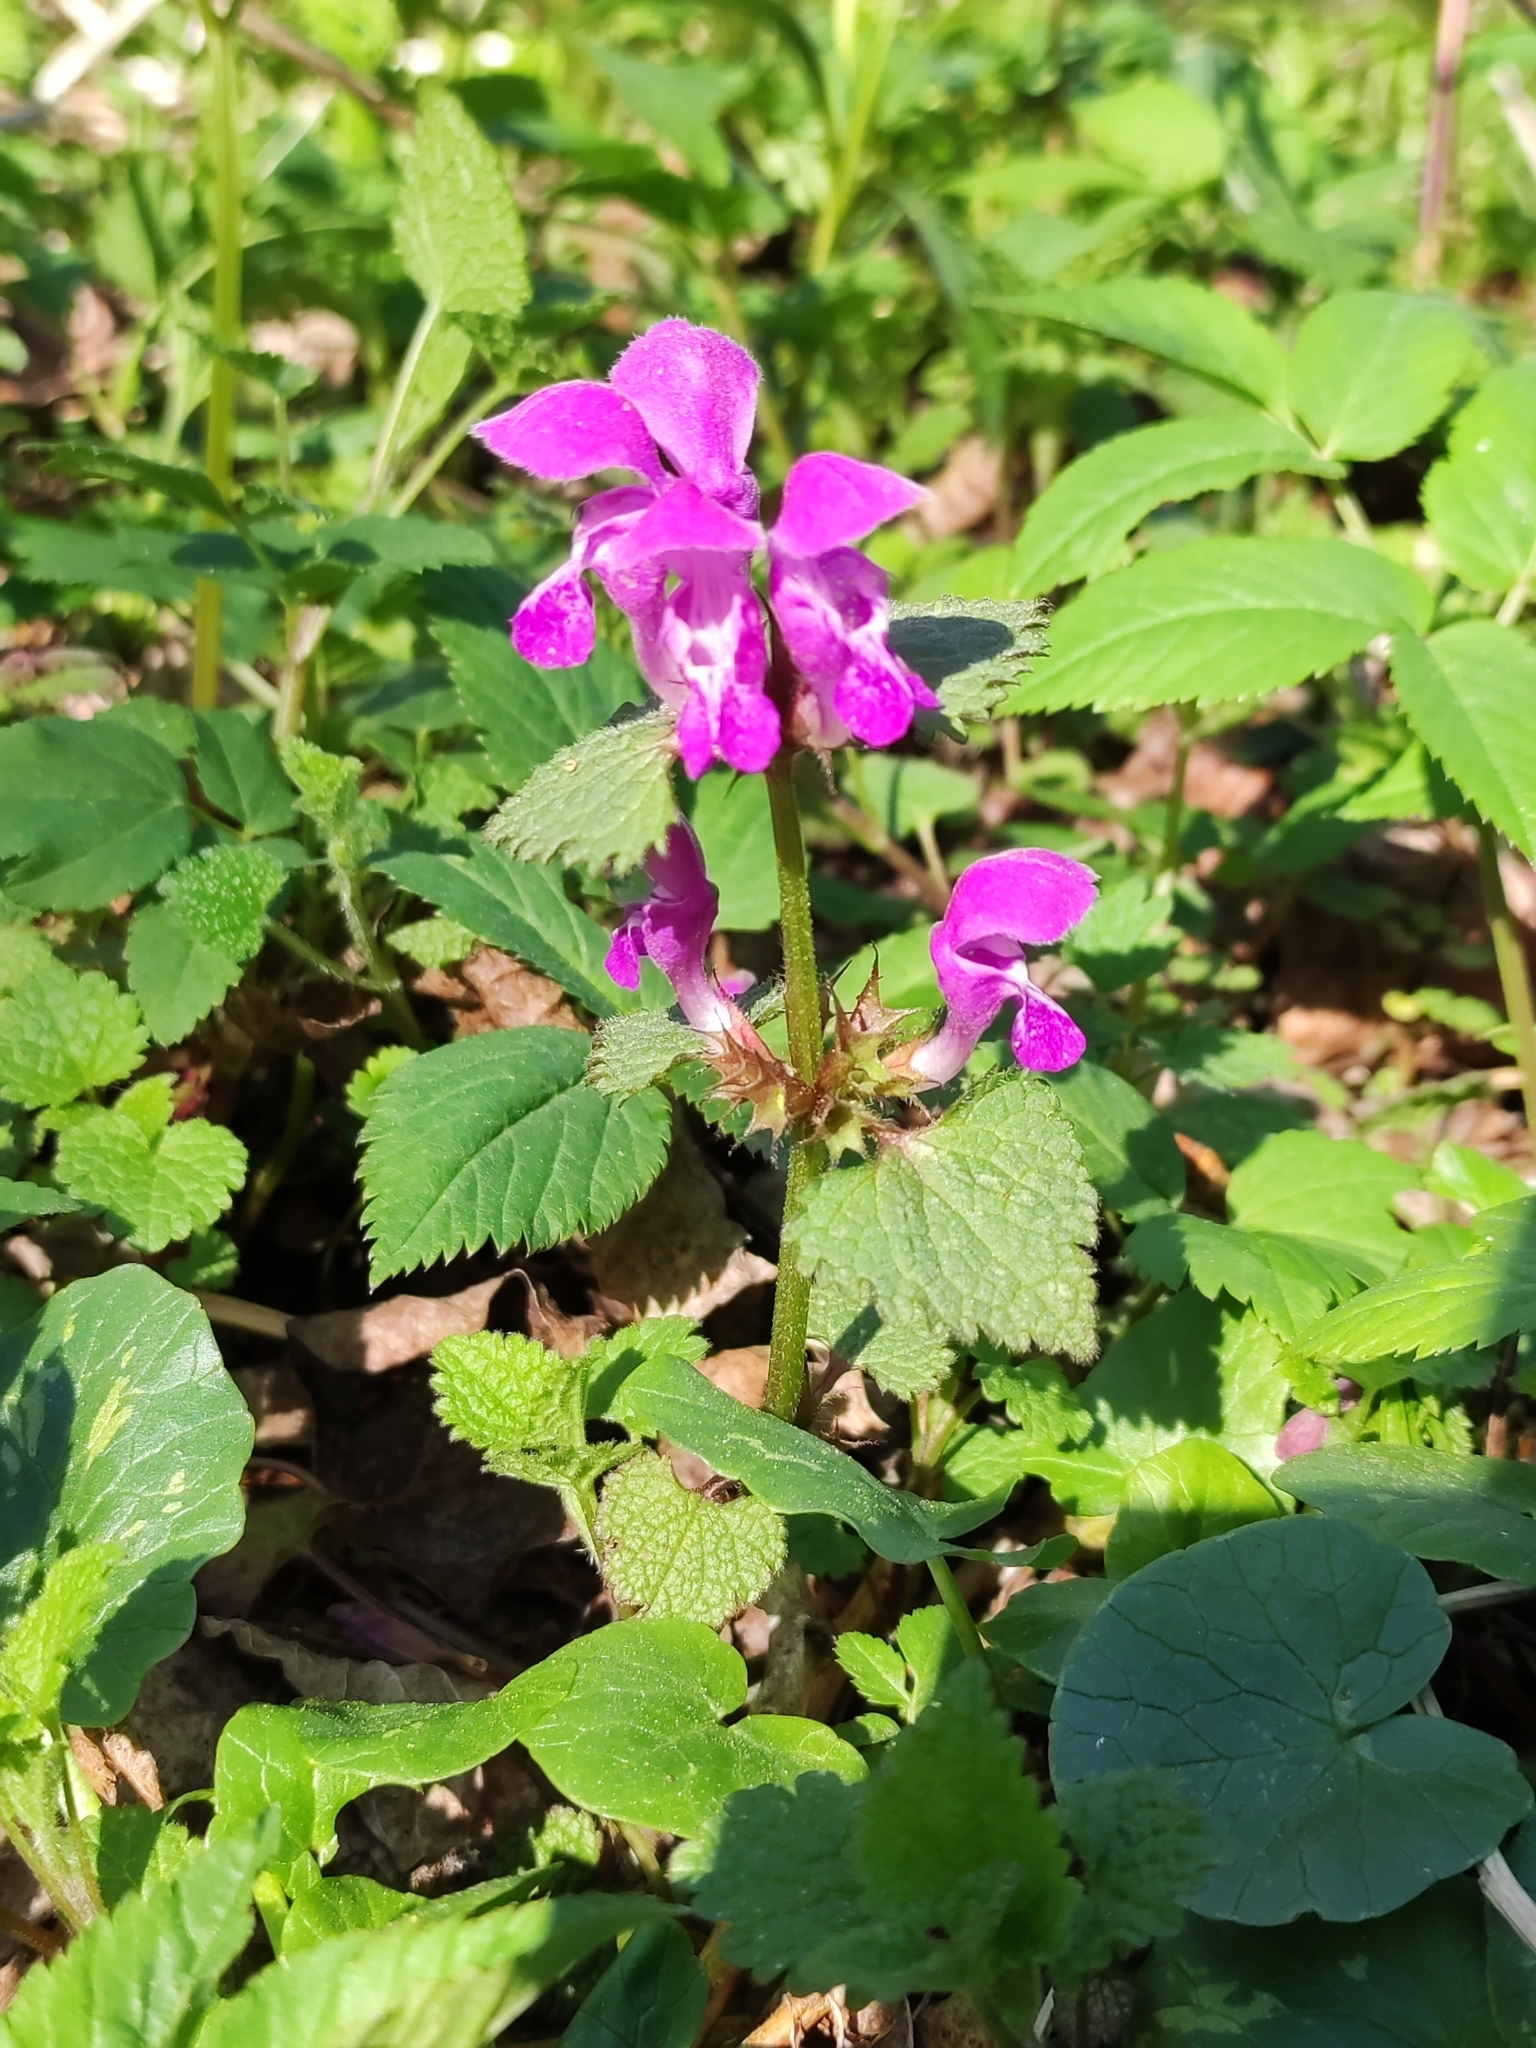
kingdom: Plantae
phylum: Tracheophyta
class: Magnoliopsida
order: Lamiales
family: Lamiaceae
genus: Lamium
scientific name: Lamium maculatum
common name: Spotted dead-nettle
